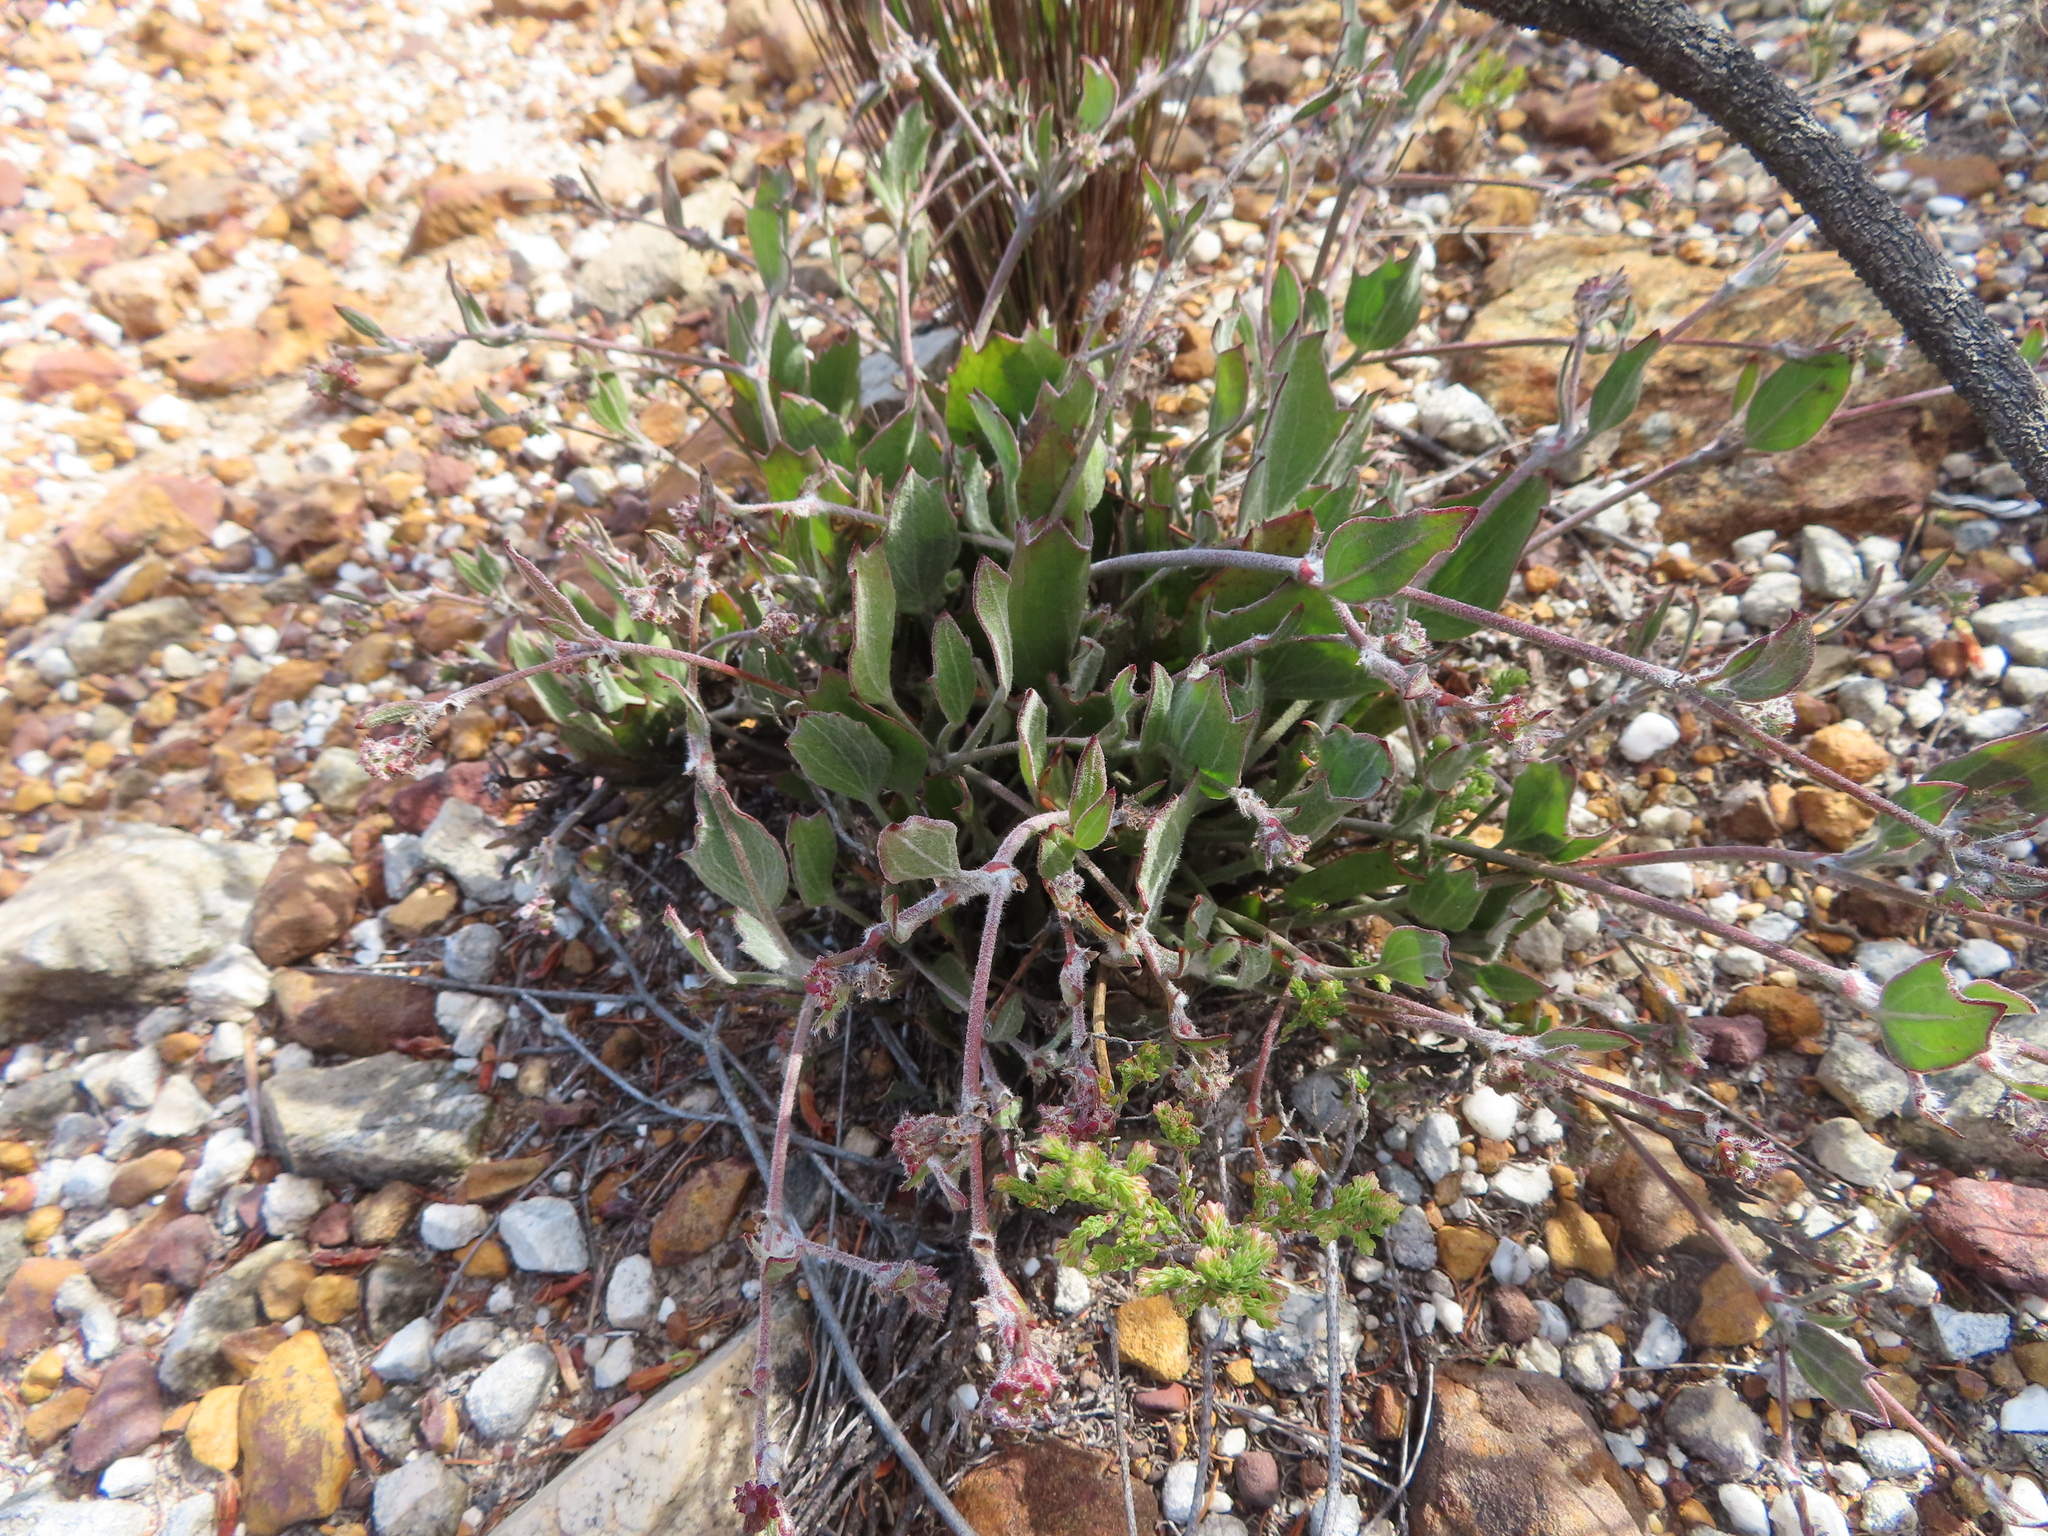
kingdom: Plantae
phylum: Tracheophyta
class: Magnoliopsida
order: Apiales
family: Apiaceae
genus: Centella
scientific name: Centella difformis
